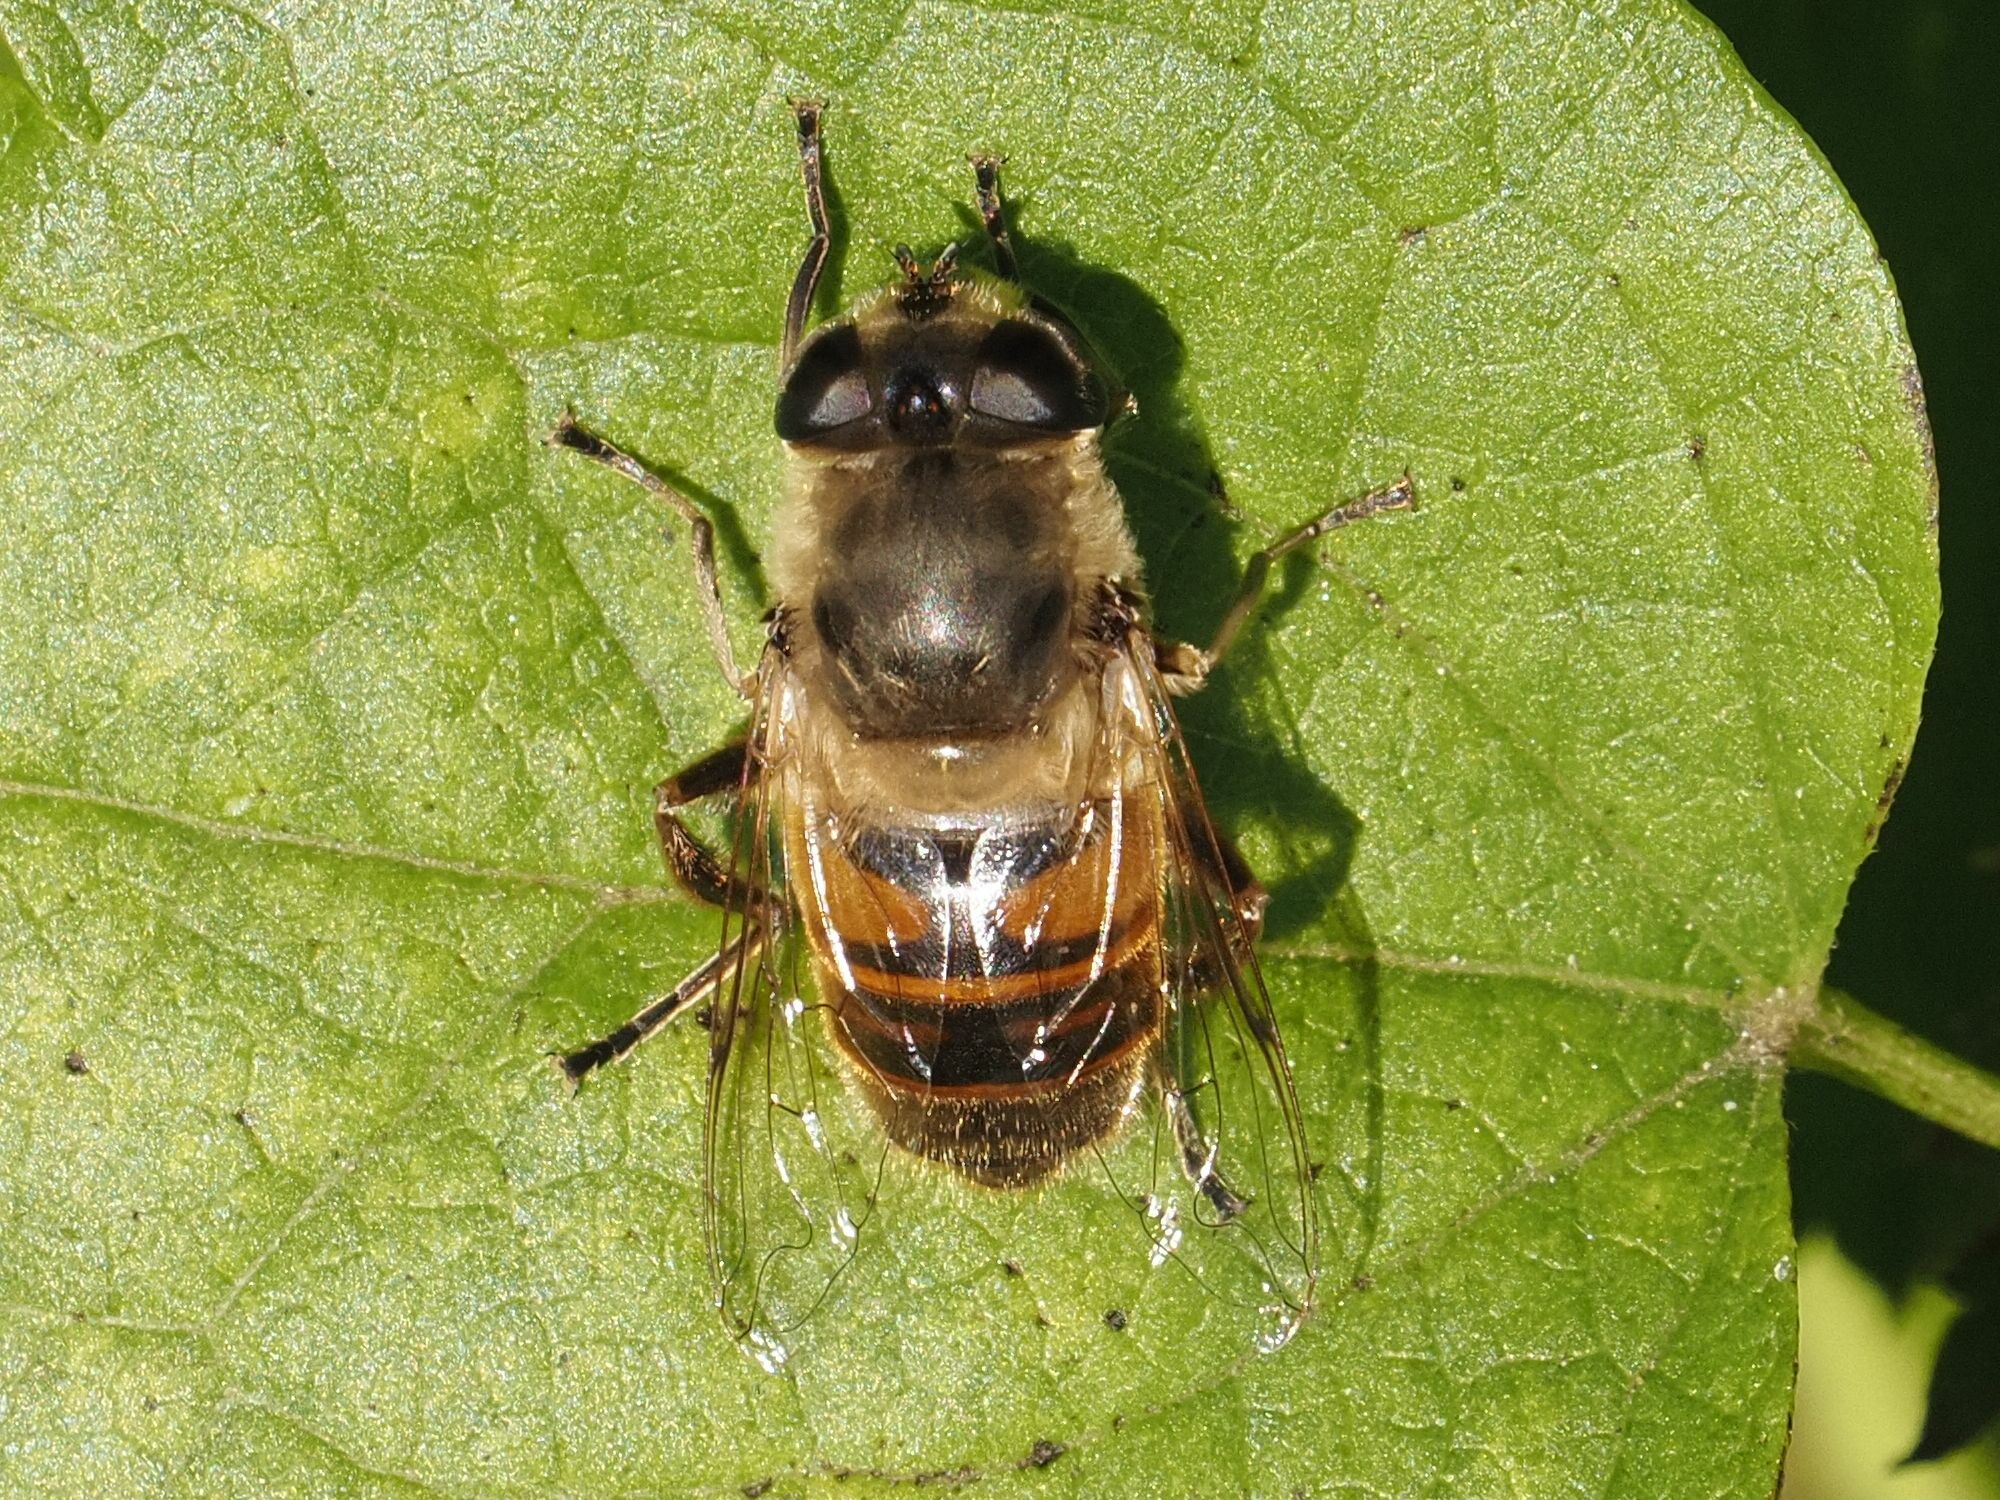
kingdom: Animalia
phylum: Arthropoda
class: Insecta
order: Diptera
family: Syrphidae
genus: Eristalis
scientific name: Eristalis tenax
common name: Drone fly
